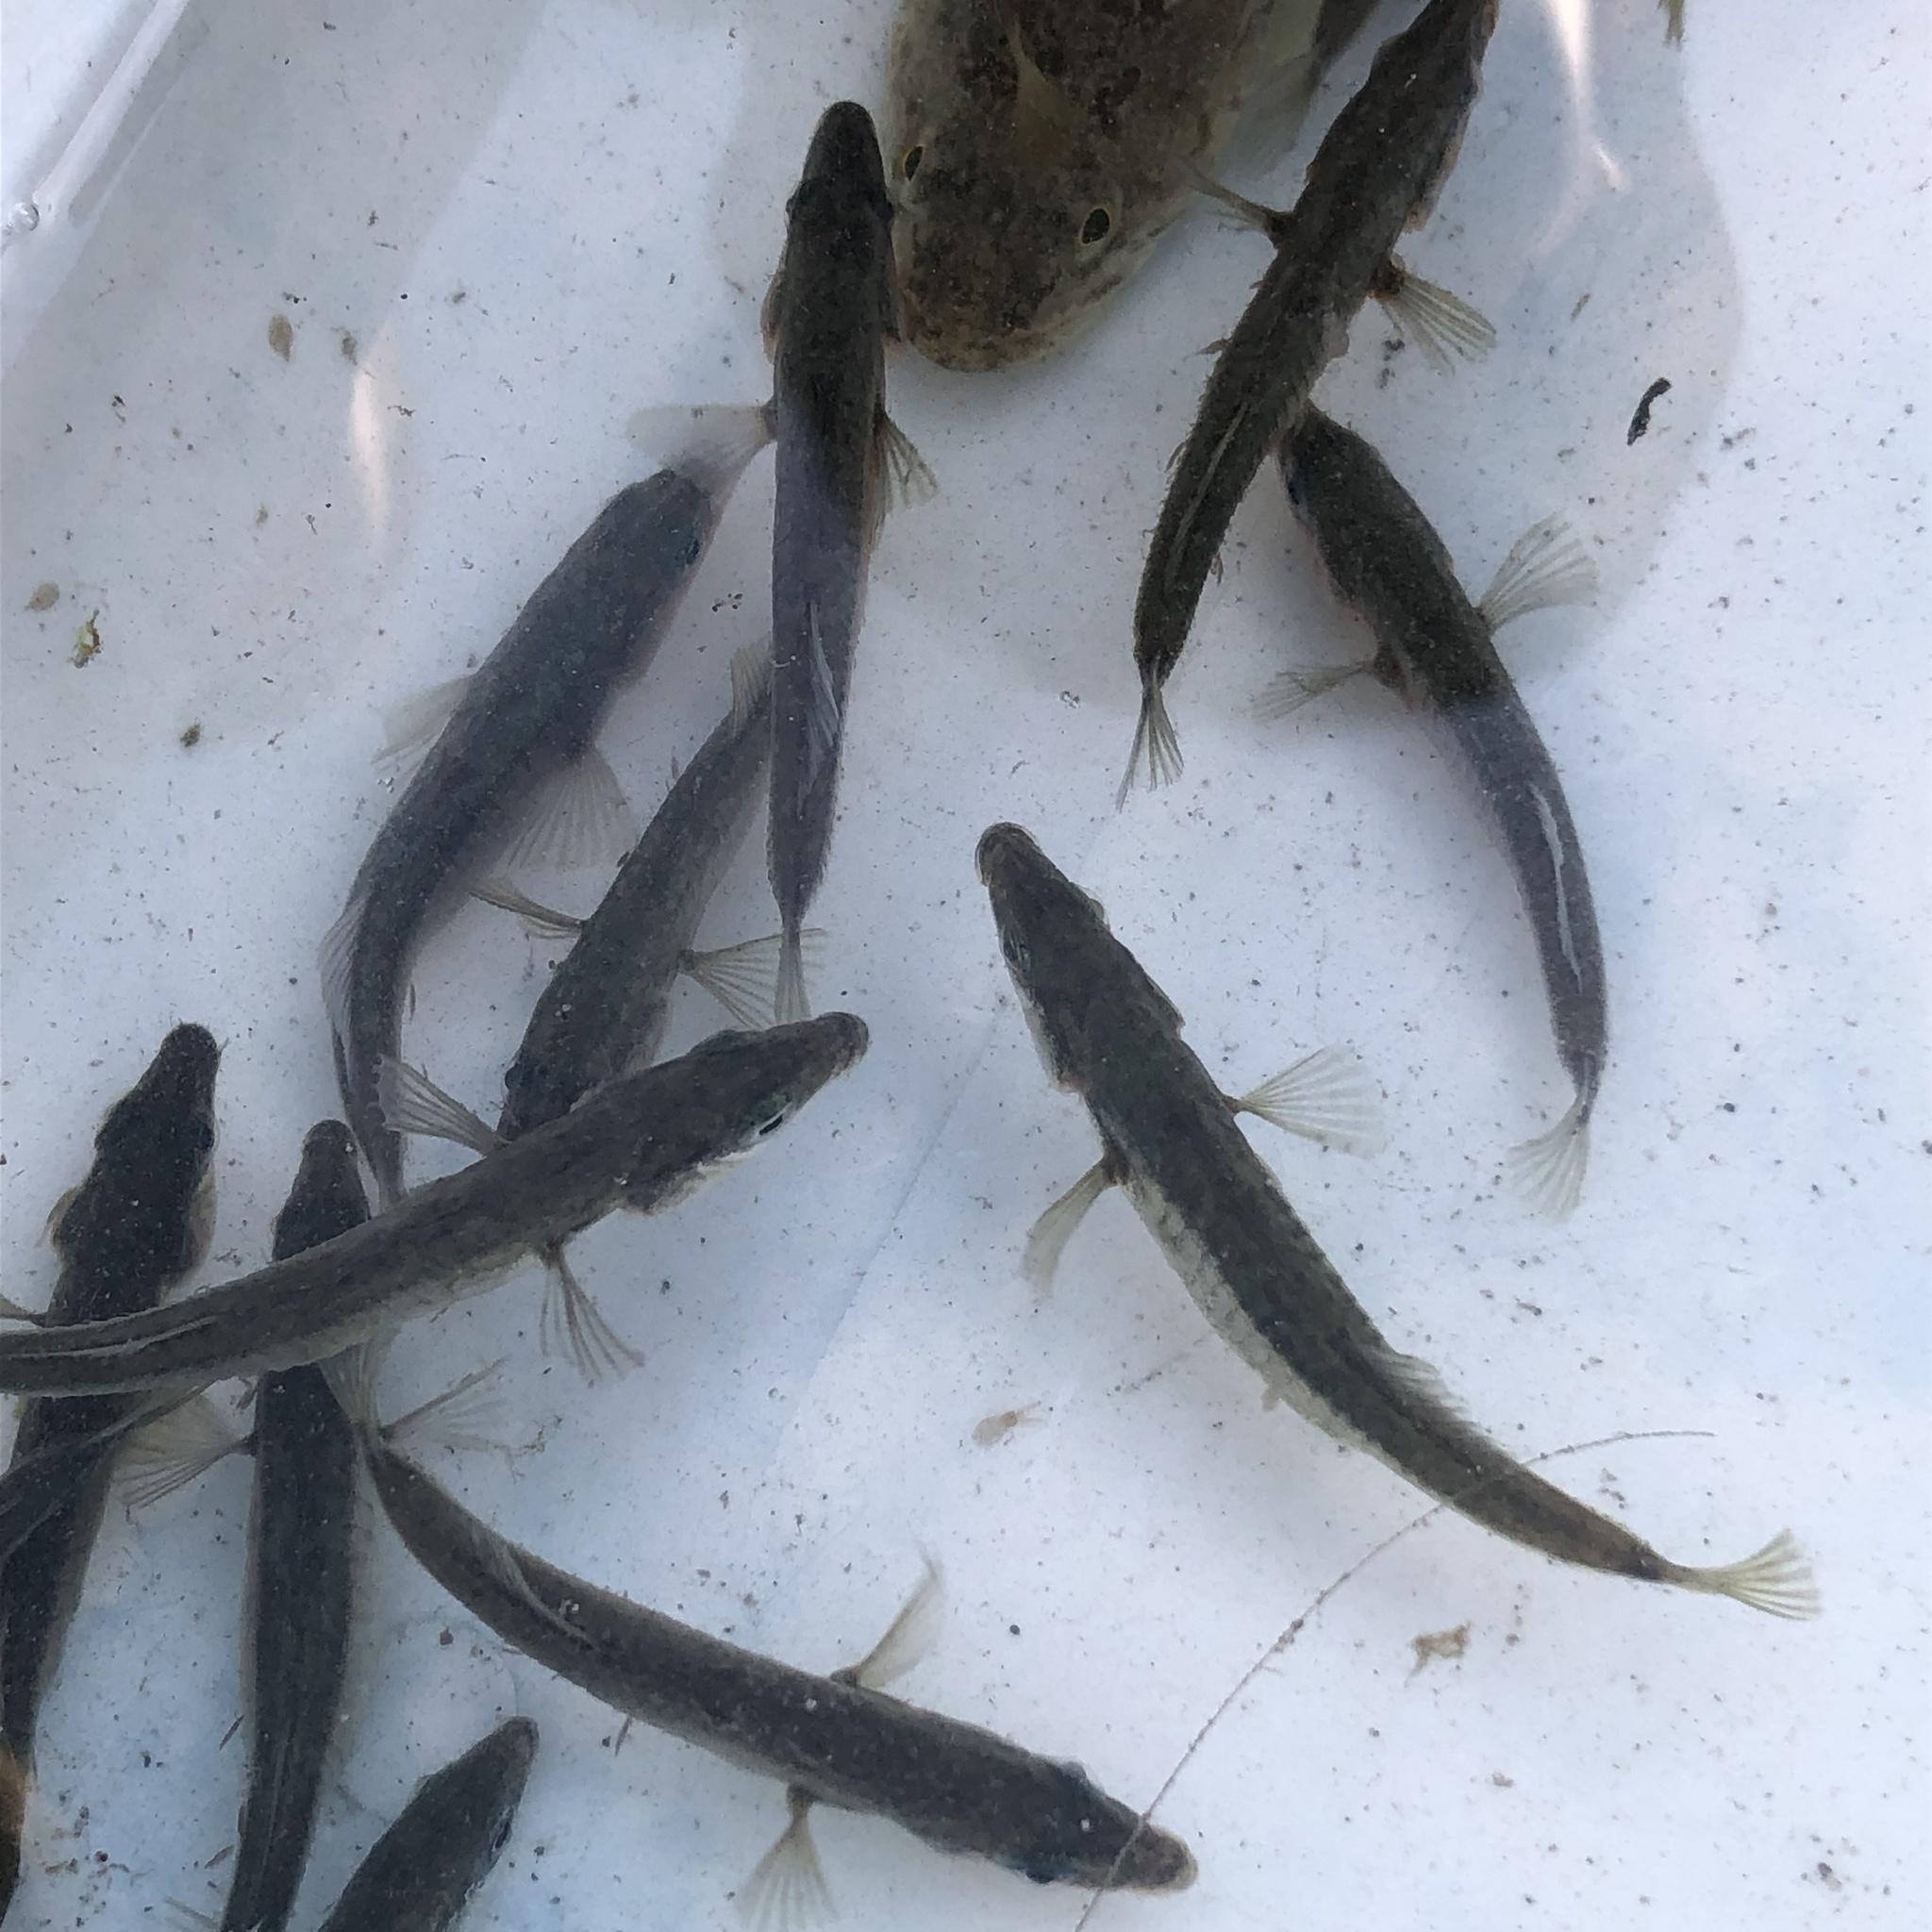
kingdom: Animalia
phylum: Chordata
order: Gasterosteiformes
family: Gasterosteidae
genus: Gasterosteus
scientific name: Gasterosteus aculeatus
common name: Three-spined stickleback
